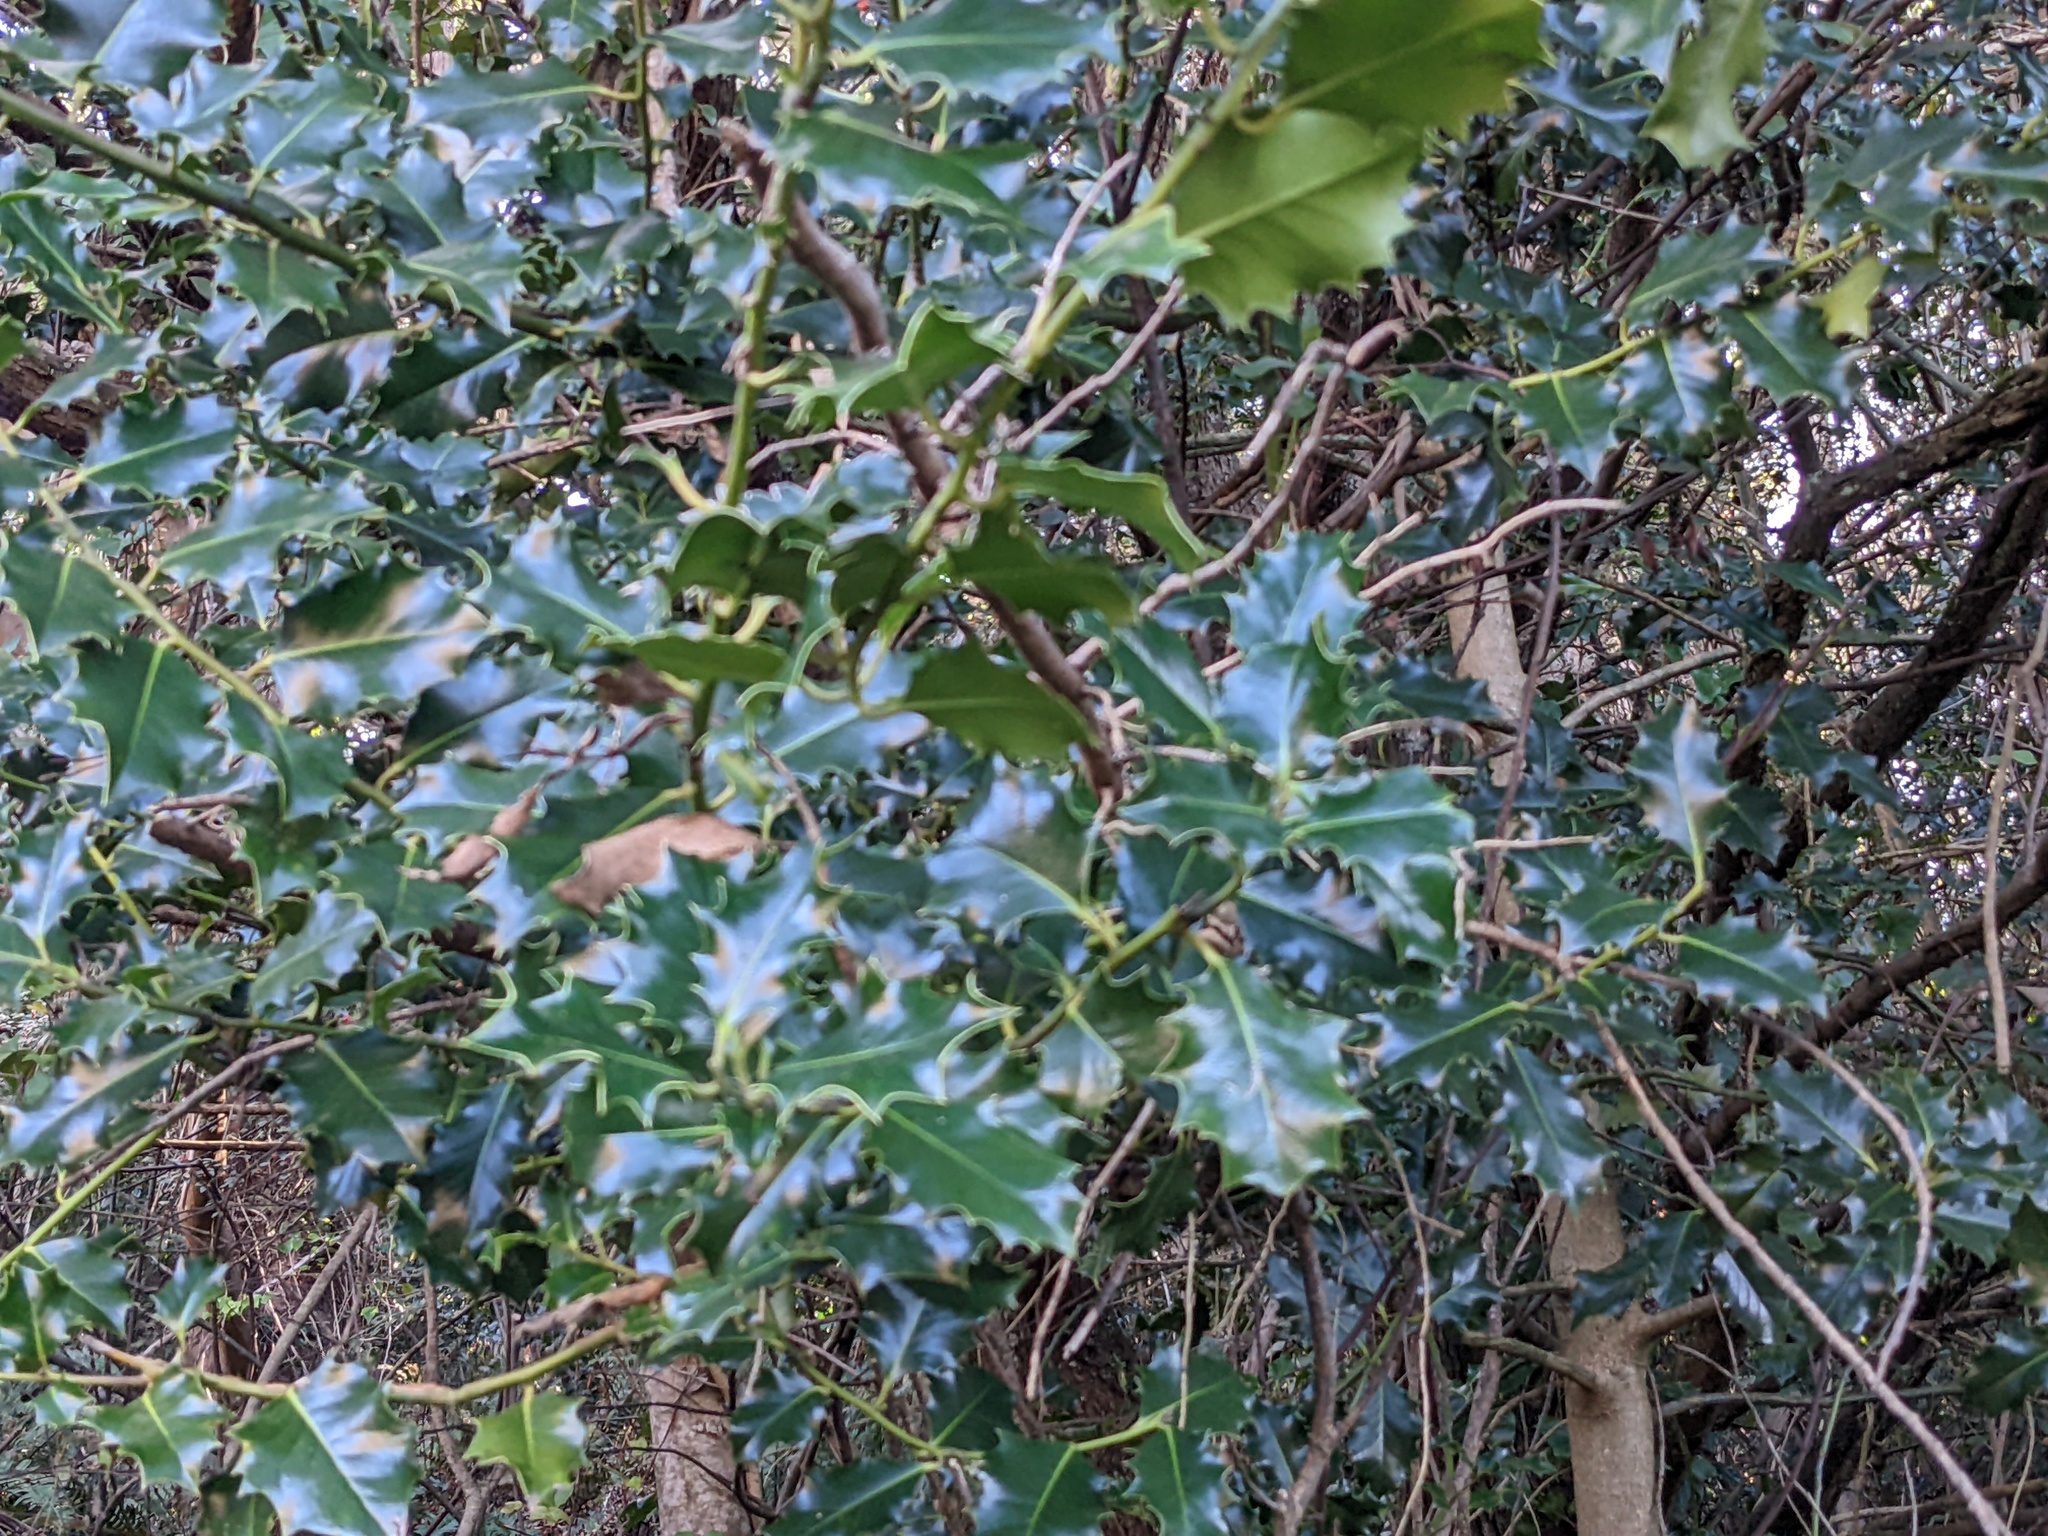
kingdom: Plantae
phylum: Tracheophyta
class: Magnoliopsida
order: Aquifoliales
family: Aquifoliaceae
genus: Ilex
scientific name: Ilex aquifolium
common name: English holly
